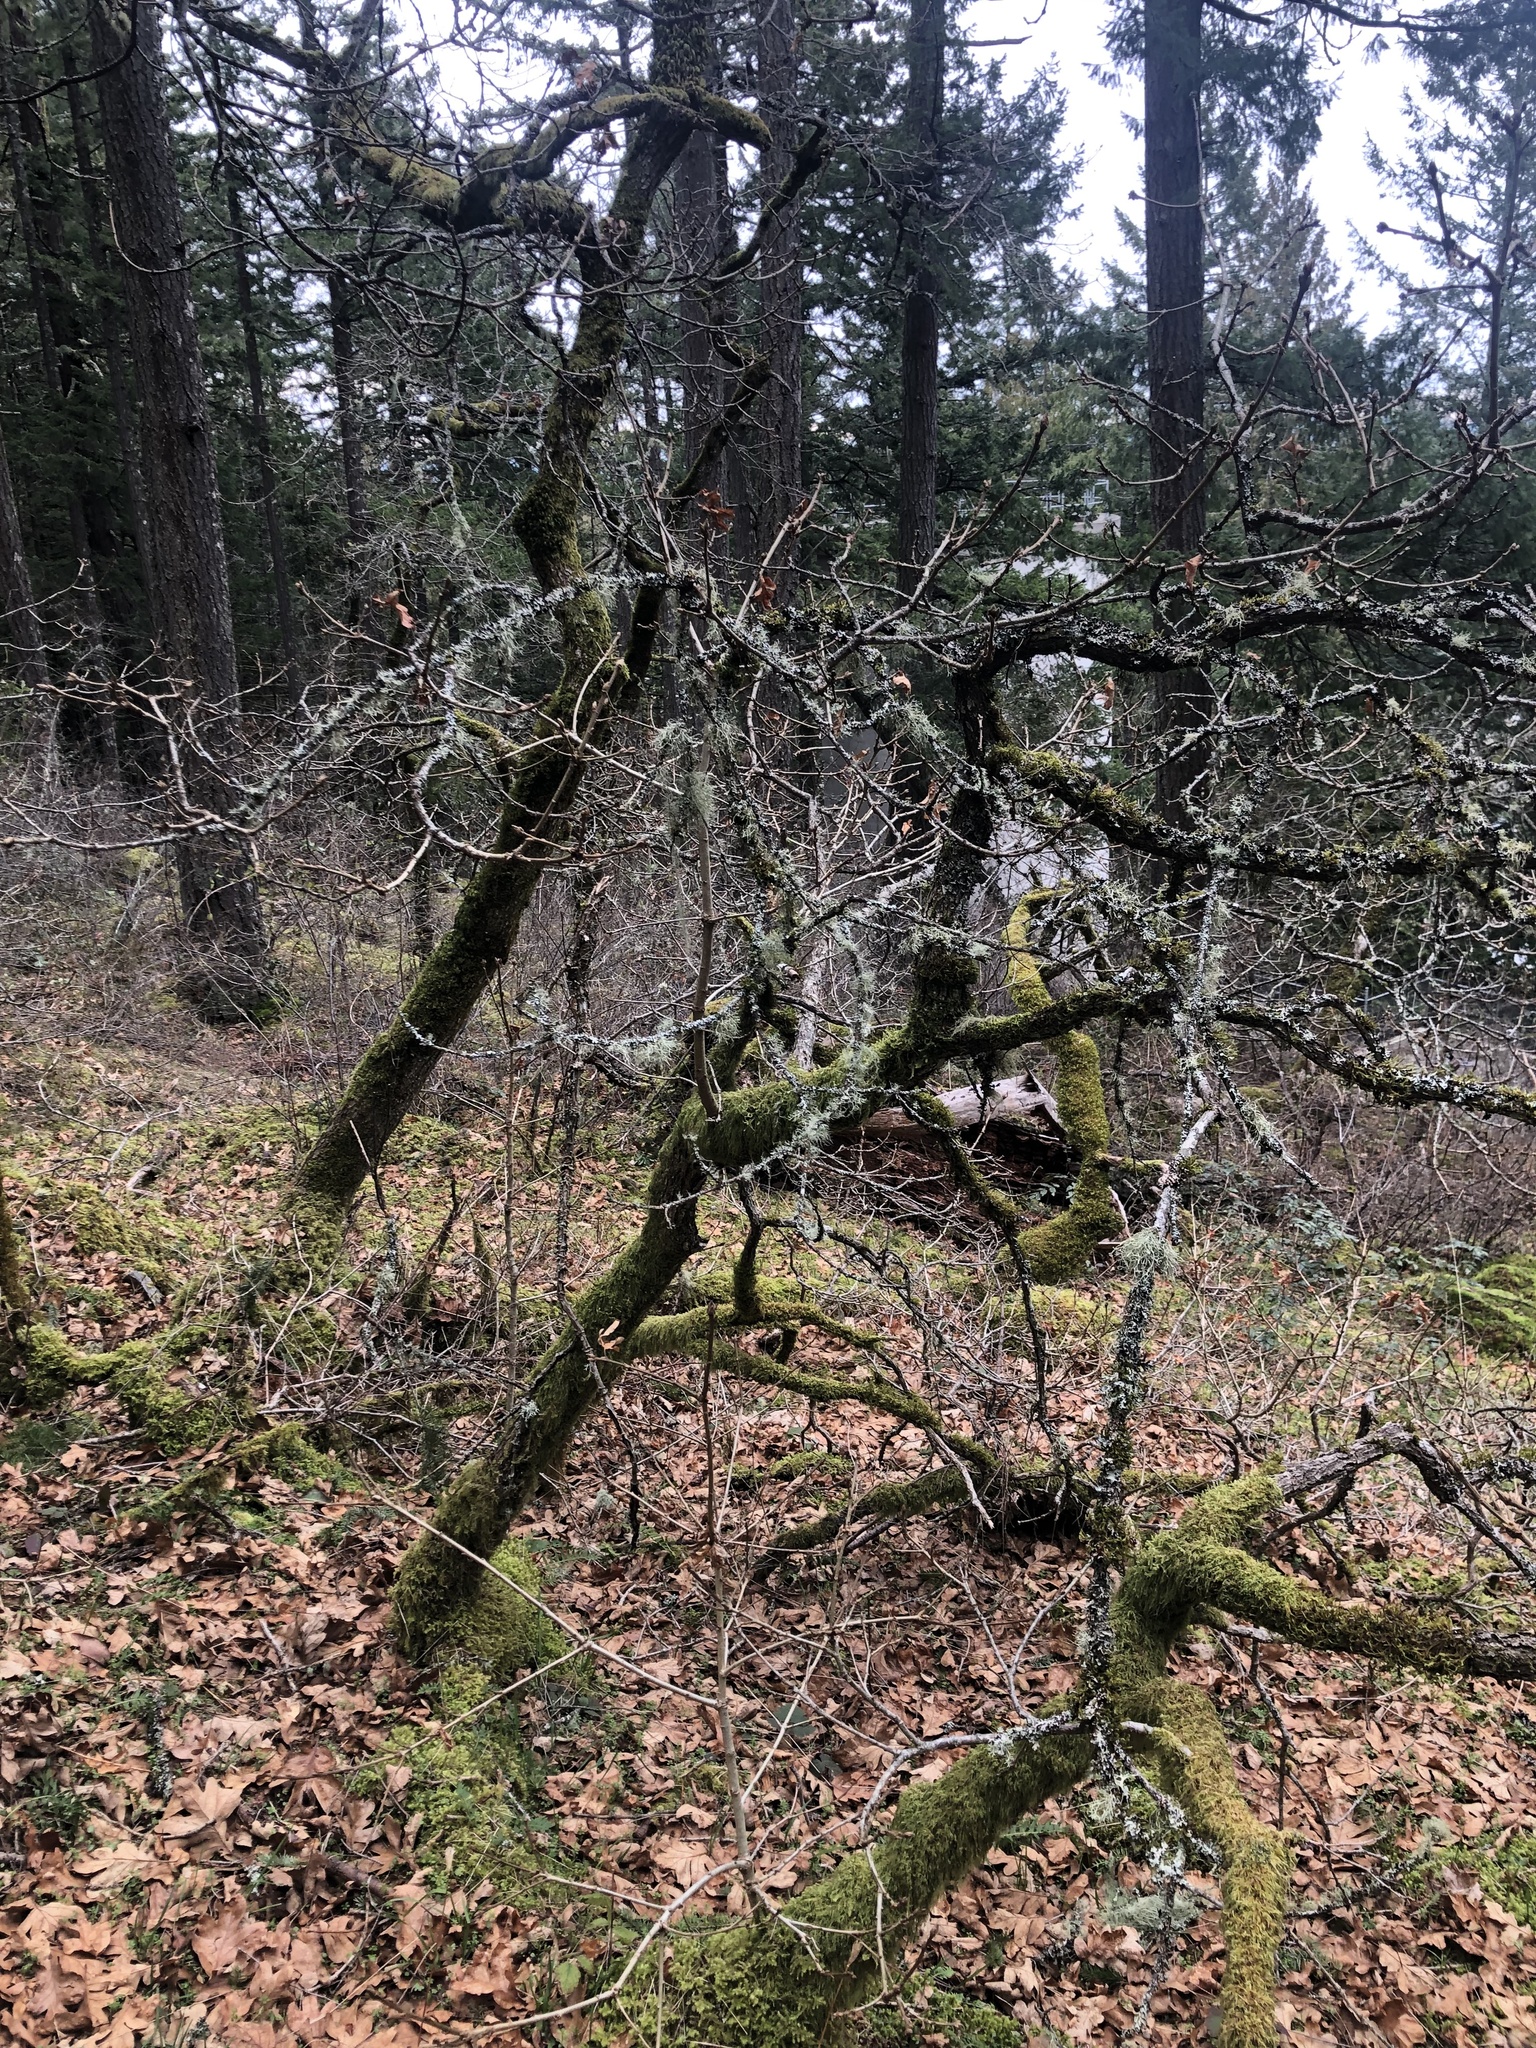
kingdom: Plantae
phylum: Tracheophyta
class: Magnoliopsida
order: Fagales
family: Fagaceae
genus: Quercus
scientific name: Quercus garryana
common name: Garry oak
